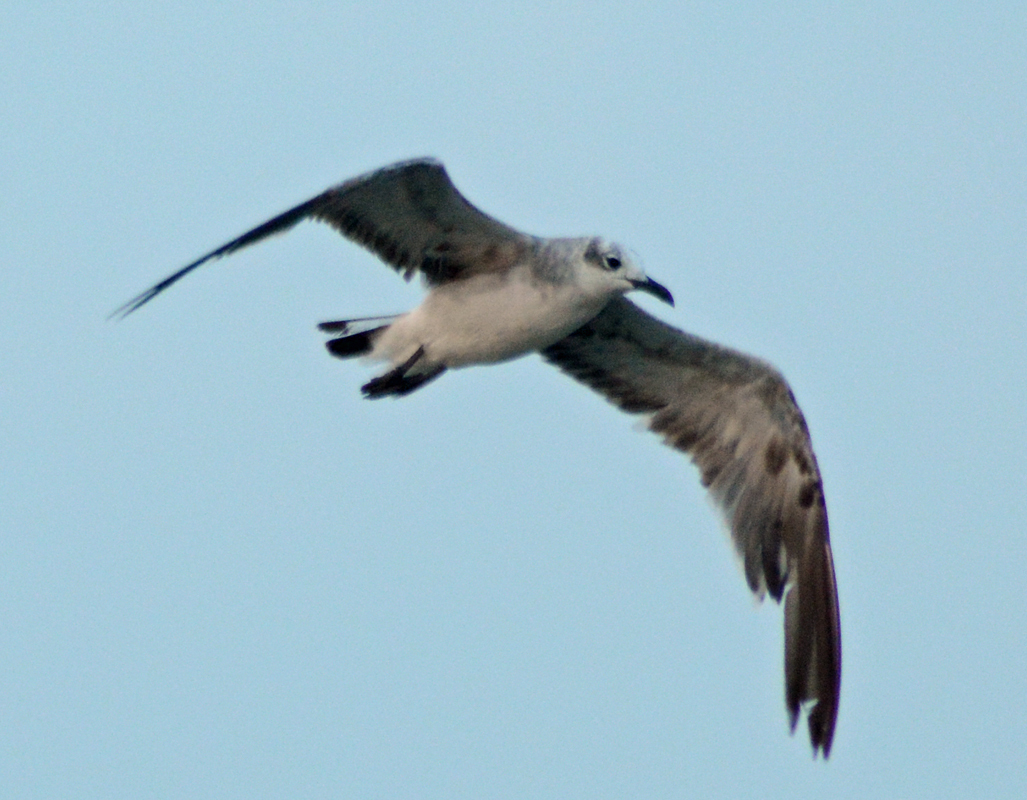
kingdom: Animalia
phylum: Chordata
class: Aves
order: Charadriiformes
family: Laridae
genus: Leucophaeus
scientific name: Leucophaeus atricilla
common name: Laughing gull
